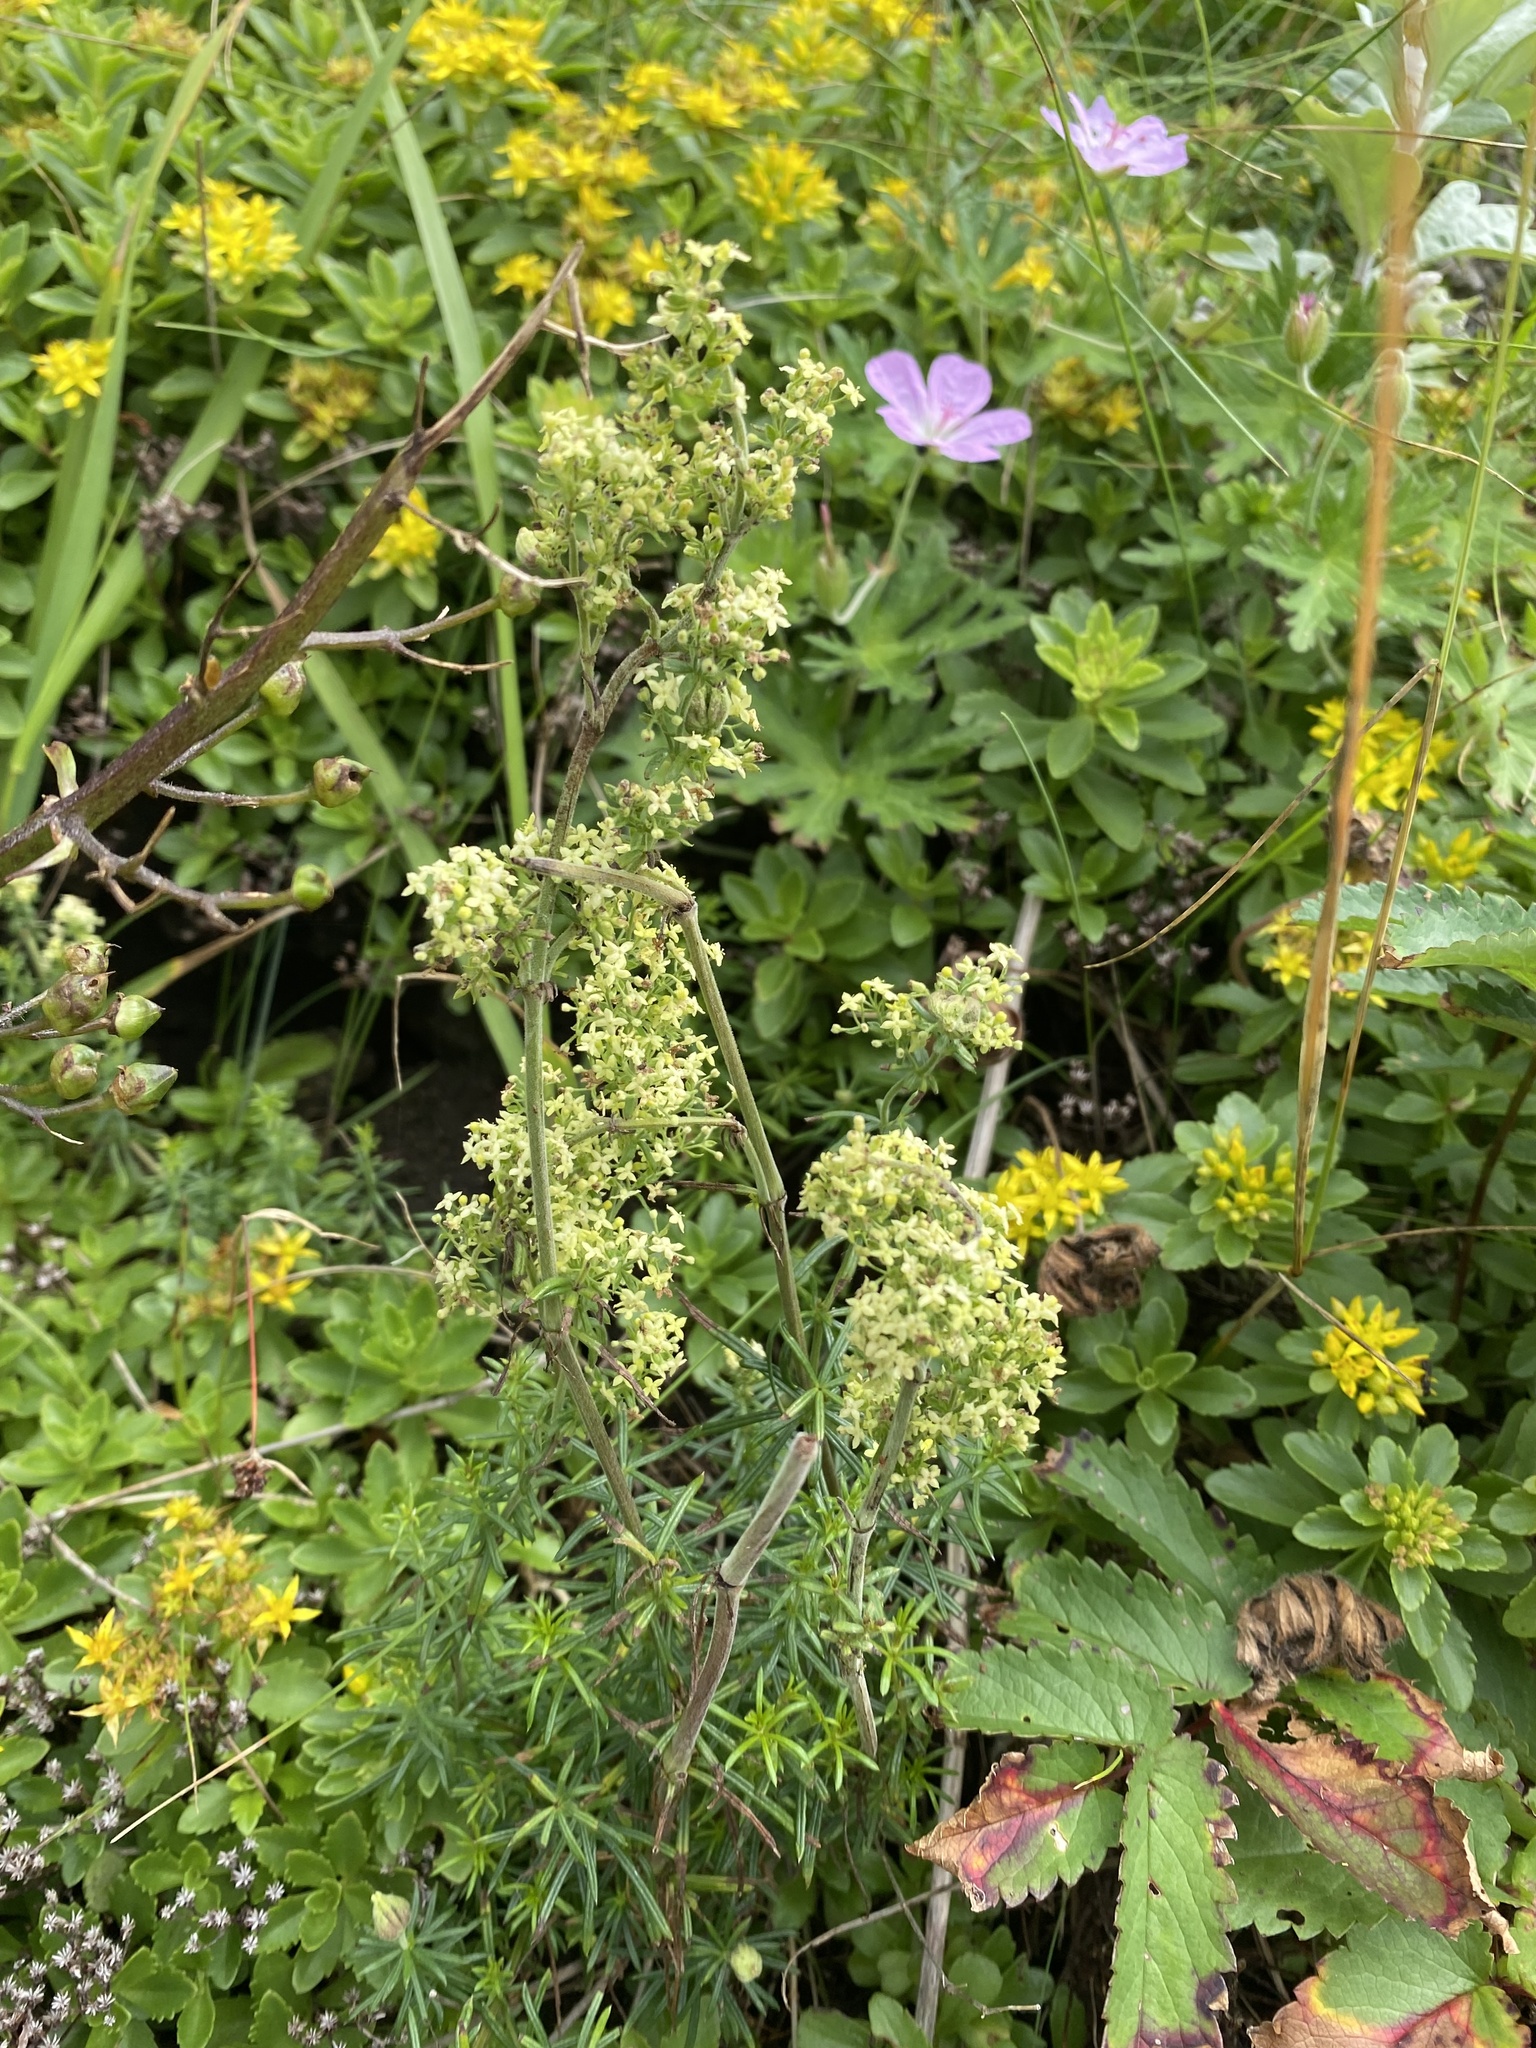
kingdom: Plantae
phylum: Tracheophyta
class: Magnoliopsida
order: Gentianales
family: Rubiaceae
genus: Galium
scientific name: Galium verum
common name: Lady's bedstraw
